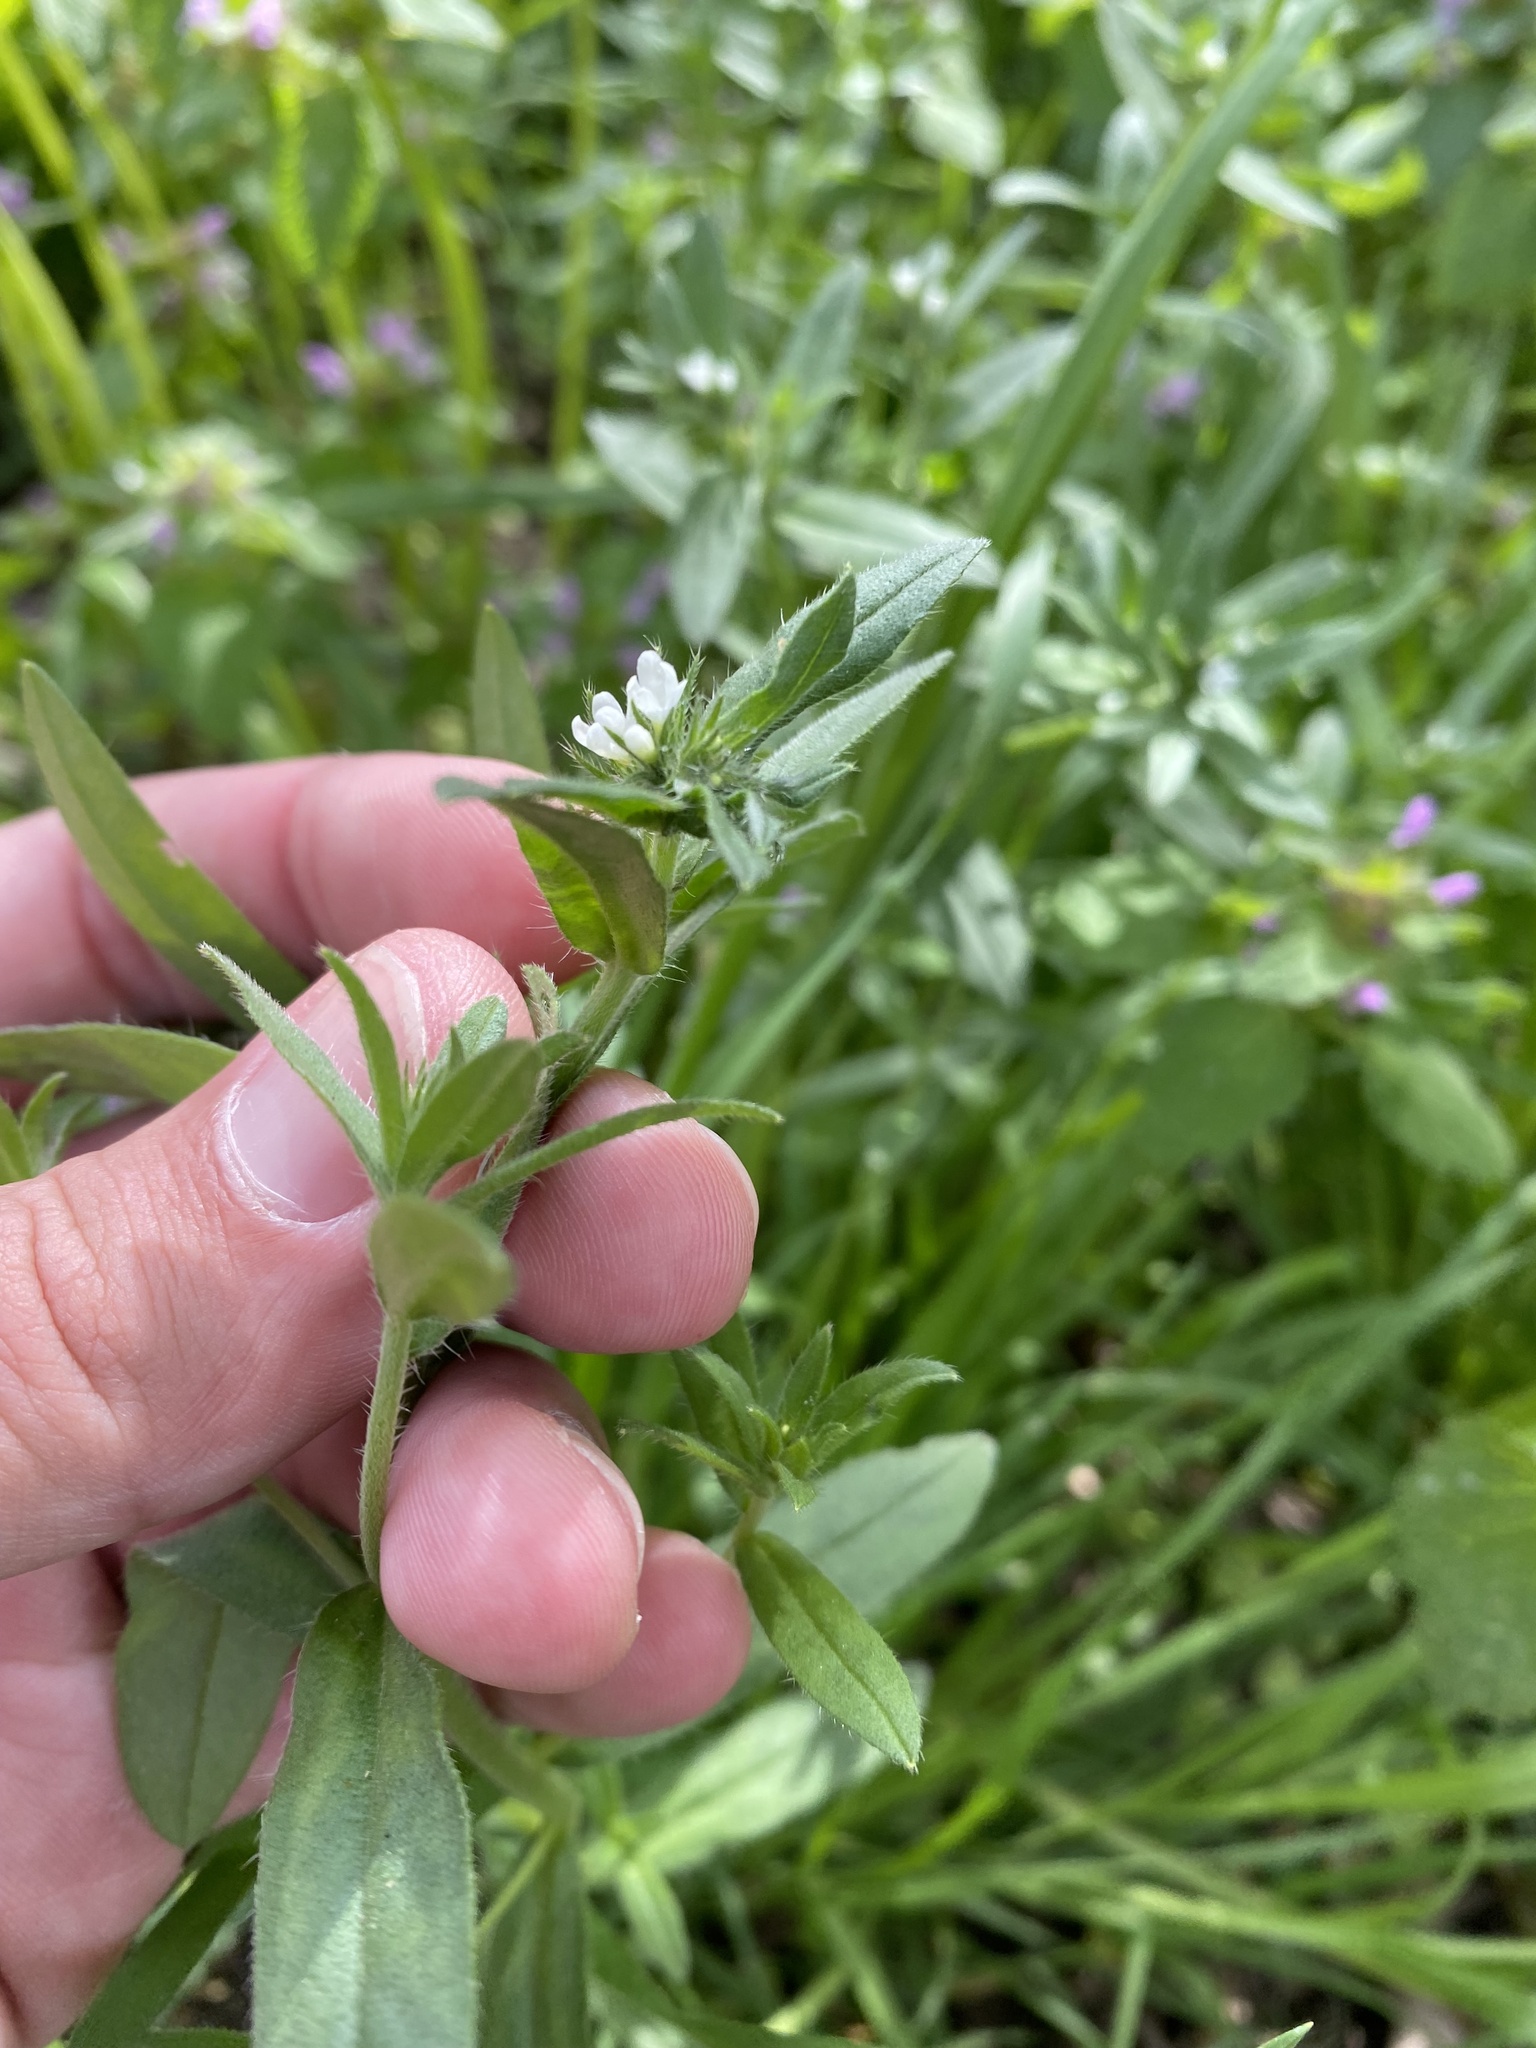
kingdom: Plantae
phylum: Tracheophyta
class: Magnoliopsida
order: Boraginales
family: Boraginaceae
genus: Buglossoides
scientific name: Buglossoides arvensis
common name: Corn gromwell
